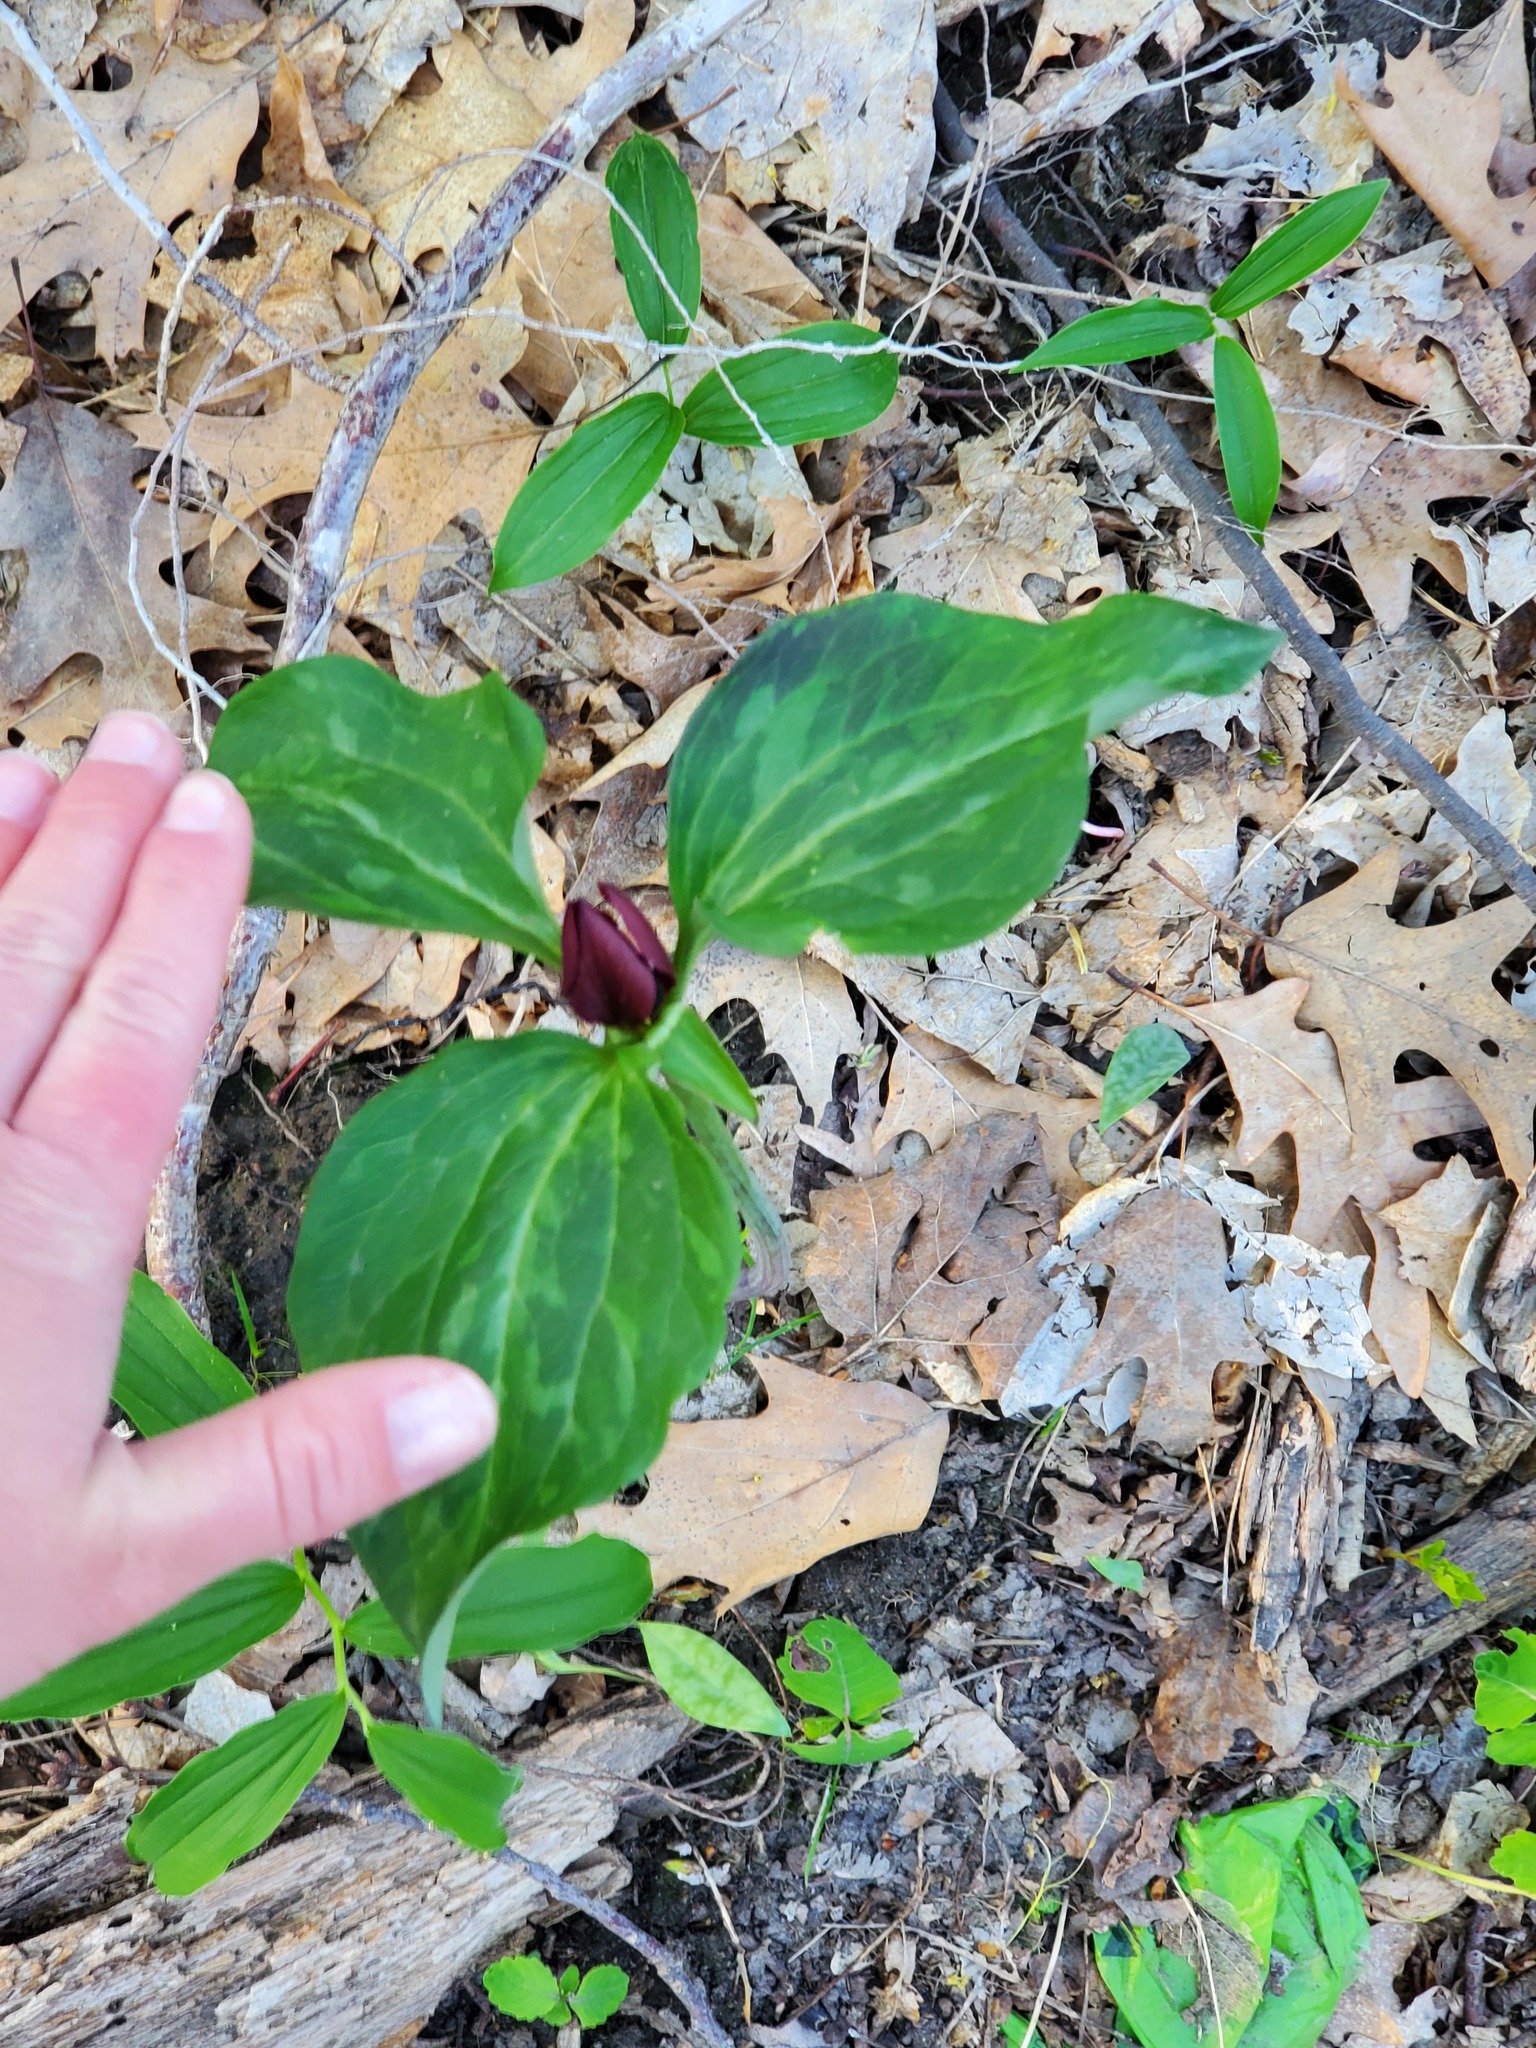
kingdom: Plantae
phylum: Tracheophyta
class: Liliopsida
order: Liliales
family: Melanthiaceae
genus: Trillium
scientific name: Trillium recurvatum
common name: Bloody butcher
